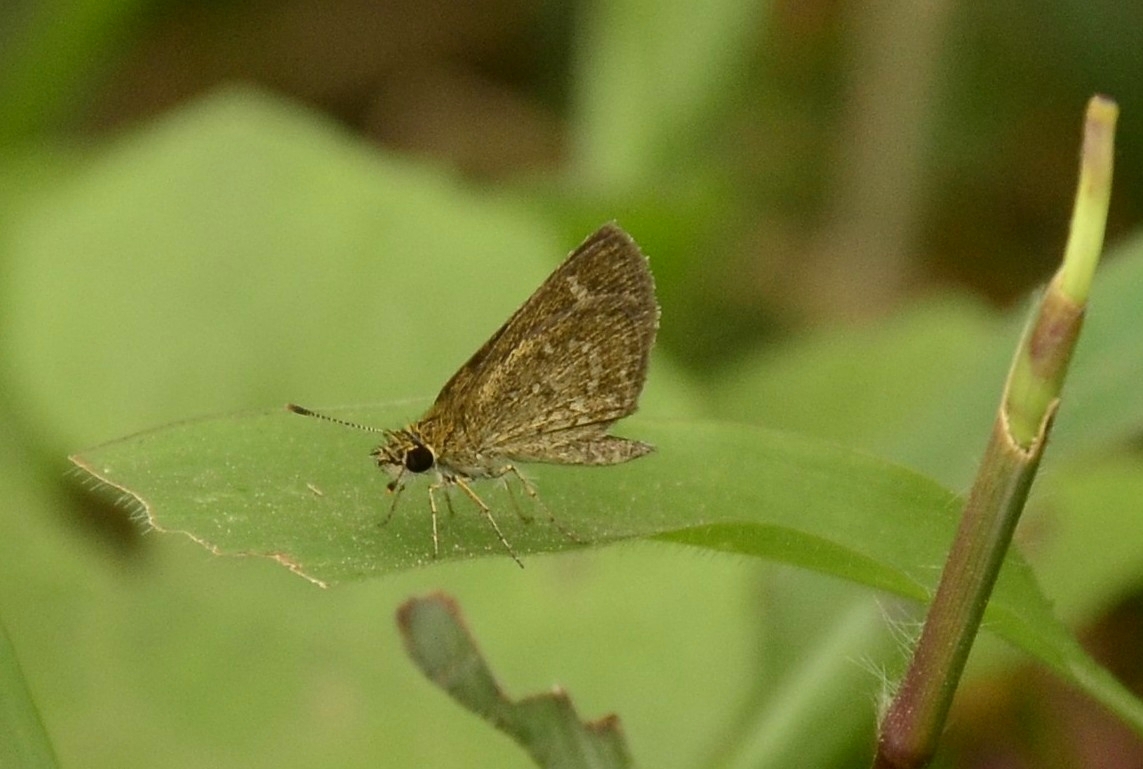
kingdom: Animalia
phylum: Arthropoda
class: Insecta
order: Lepidoptera
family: Hesperiidae
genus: Aeromachus
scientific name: Aeromachus pygmaeus
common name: Pygmy scrub hopper
